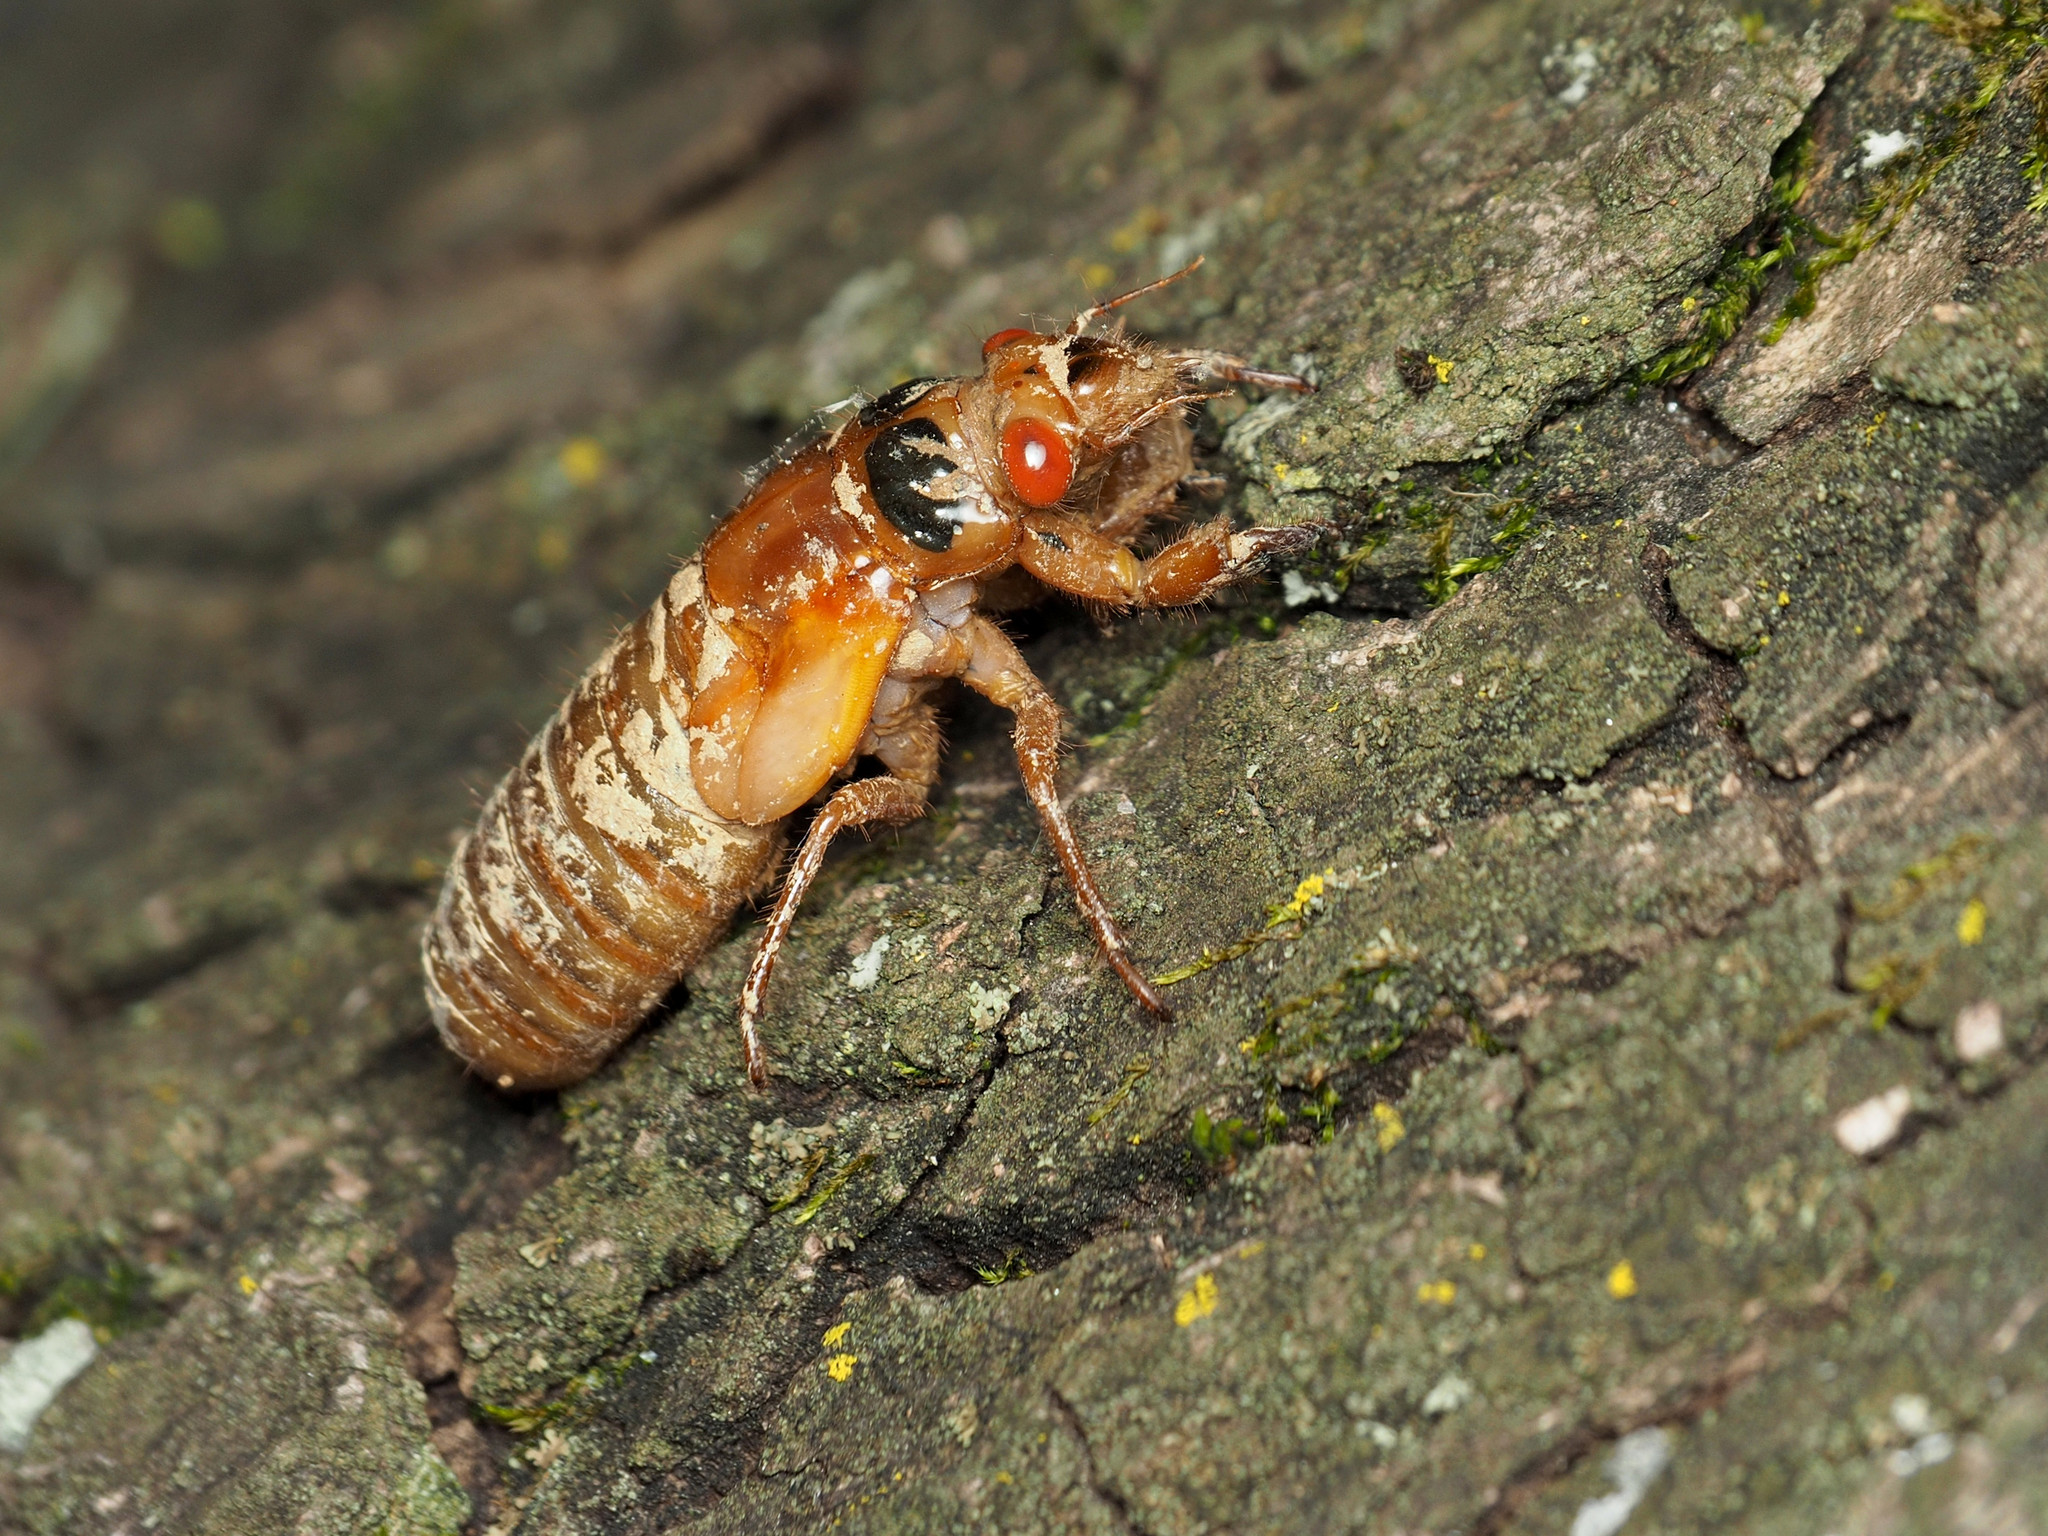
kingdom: Animalia
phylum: Arthropoda
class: Insecta
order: Hemiptera
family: Cicadidae
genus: Magicicada
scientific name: Magicicada
